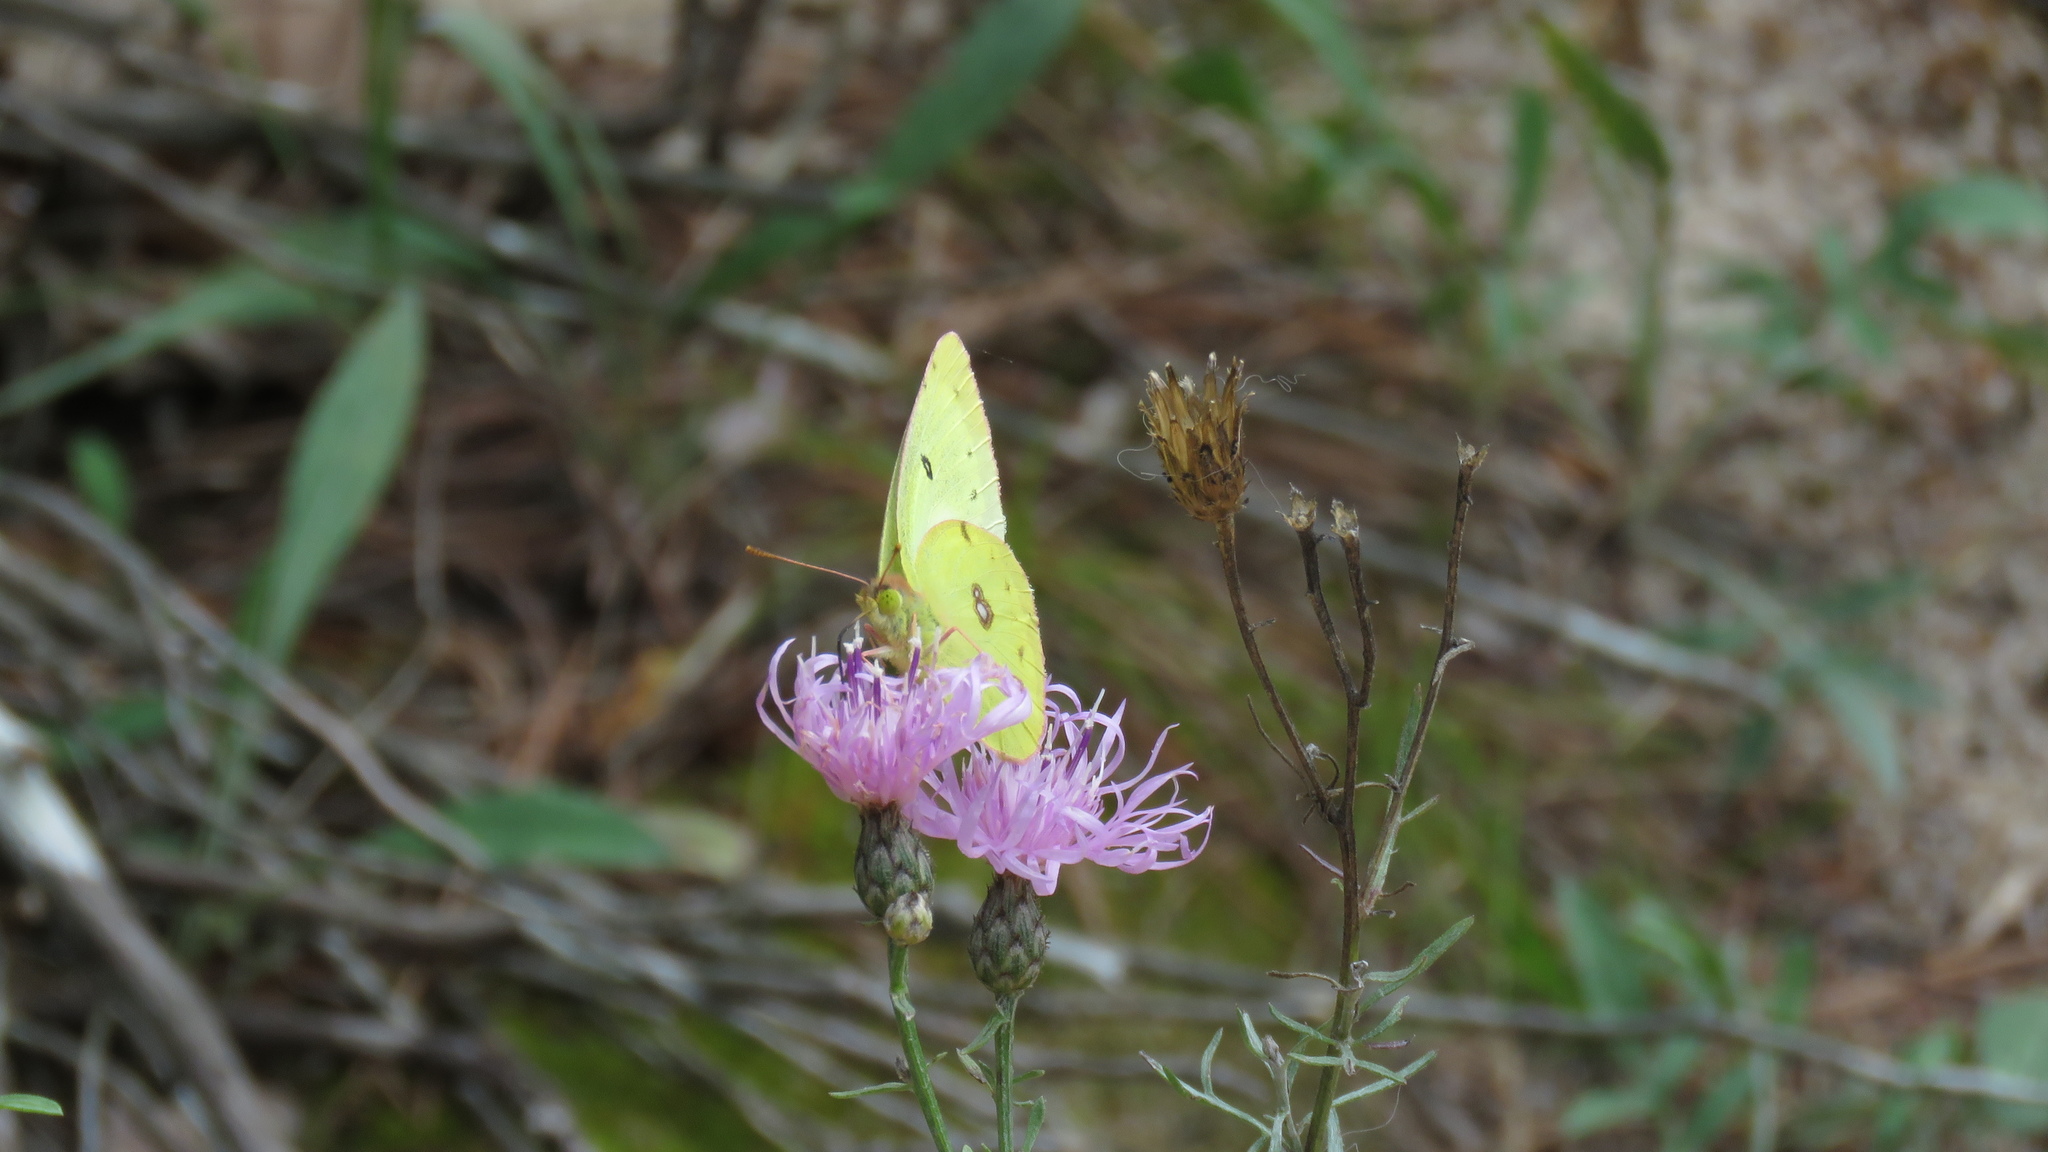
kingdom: Animalia
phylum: Arthropoda
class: Insecta
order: Lepidoptera
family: Pieridae
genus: Colias
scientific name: Colias philodice
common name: Clouded sulphur
